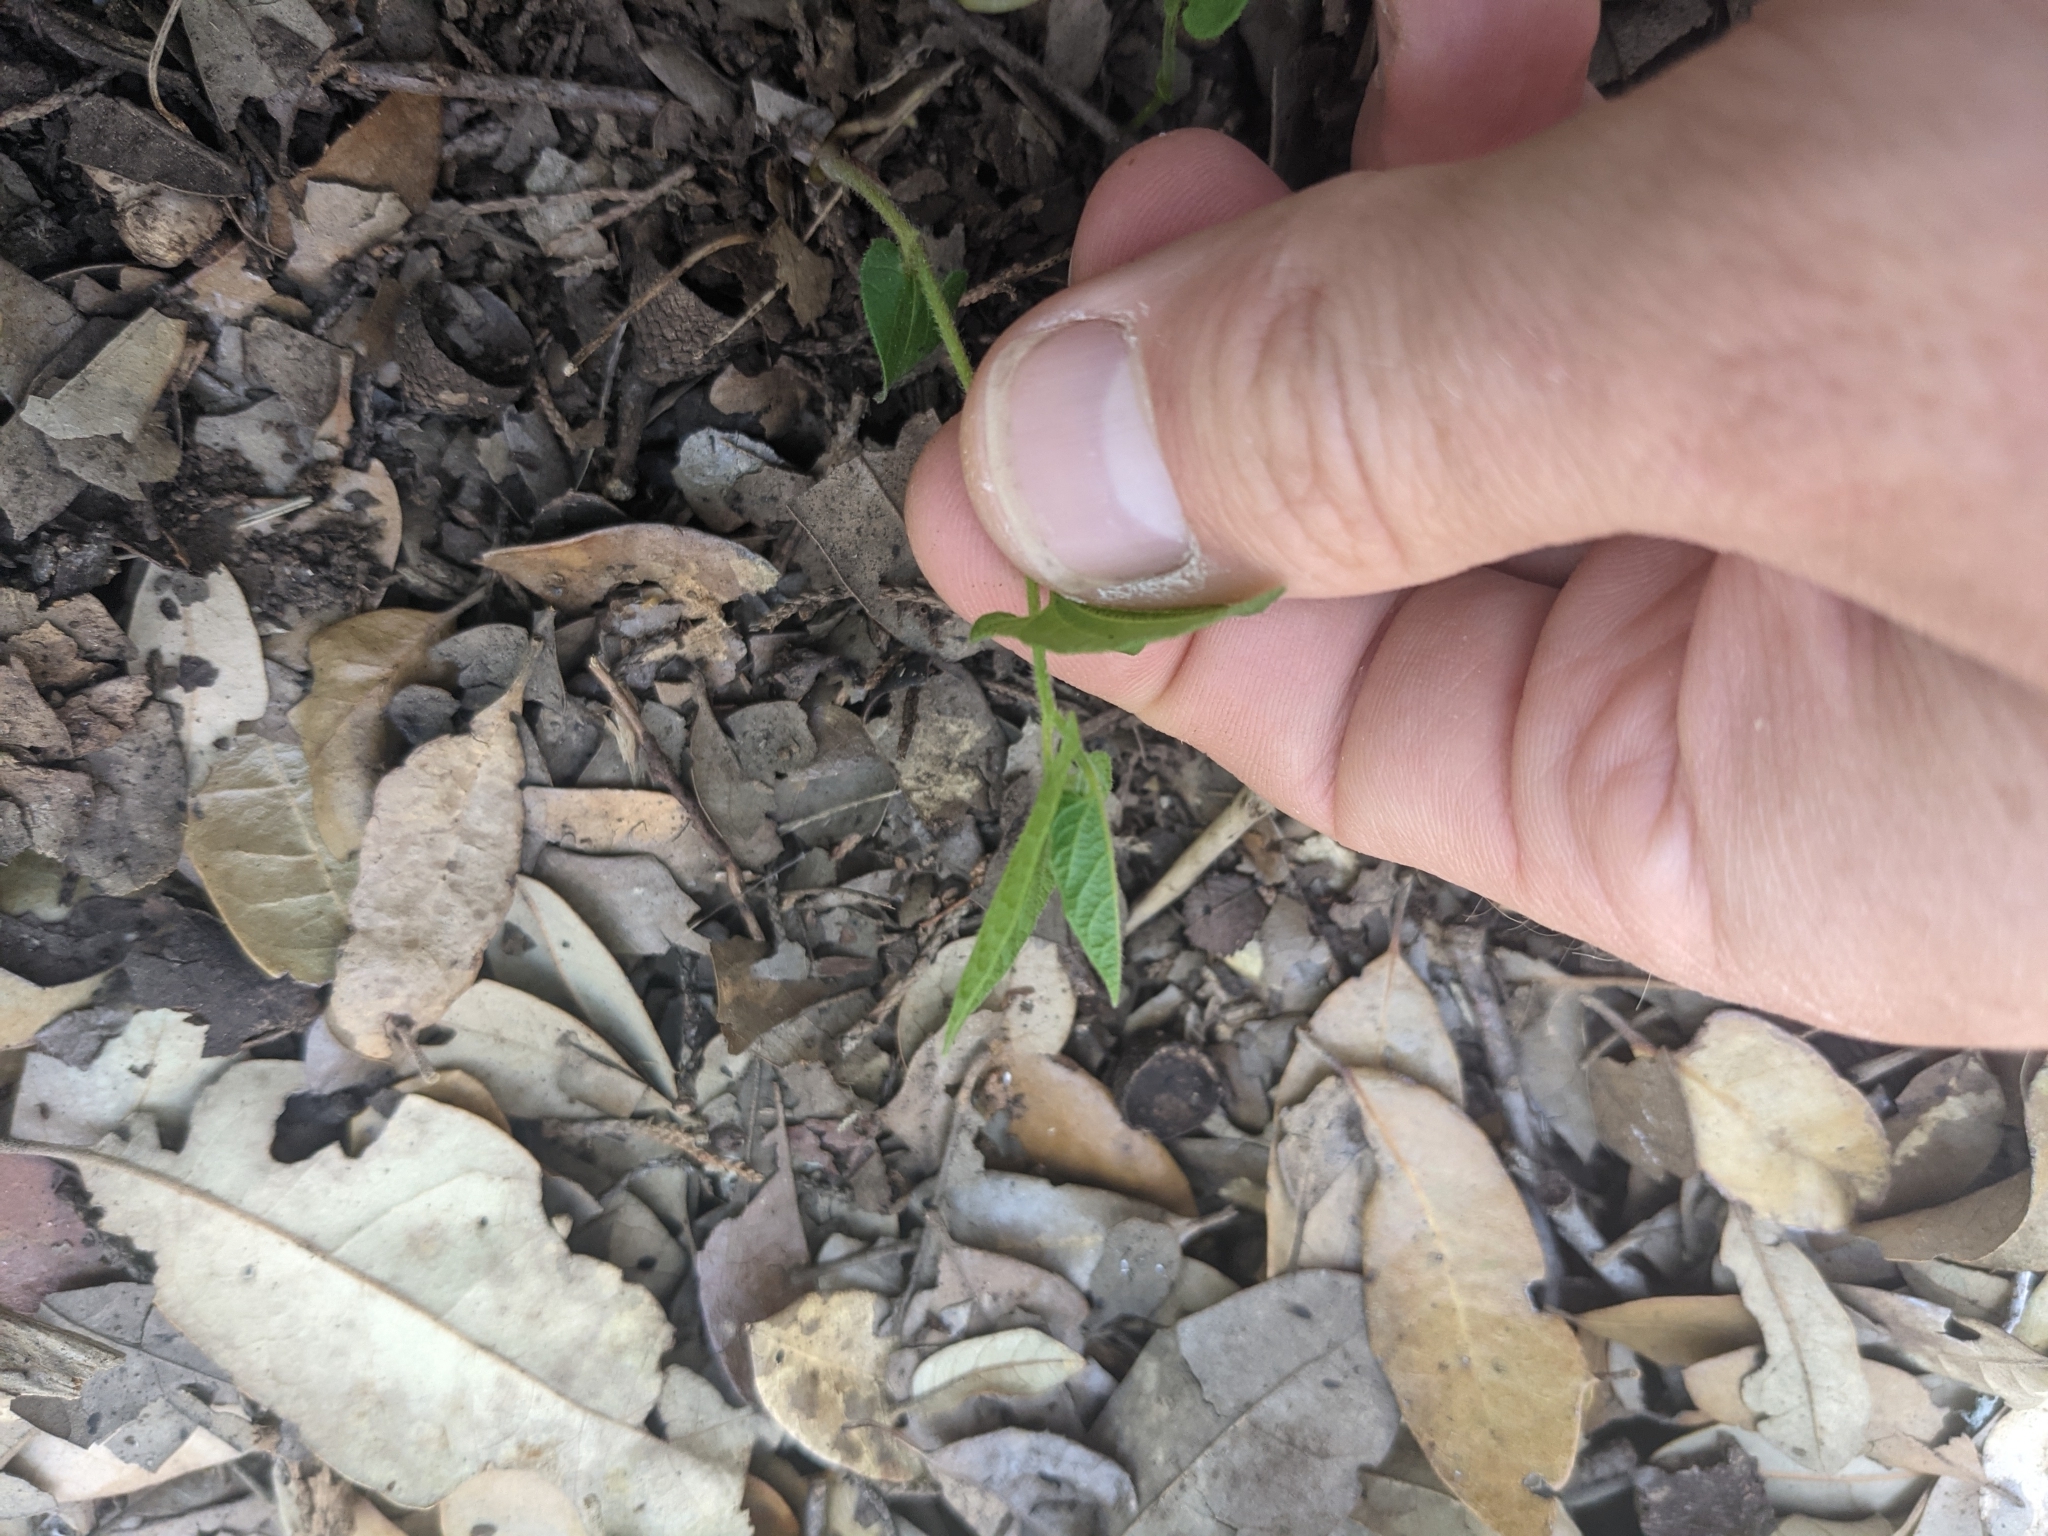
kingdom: Plantae
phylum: Tracheophyta
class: Magnoliopsida
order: Piperales
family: Aristolochiaceae
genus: Endodeca
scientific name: Endodeca serpentaria
